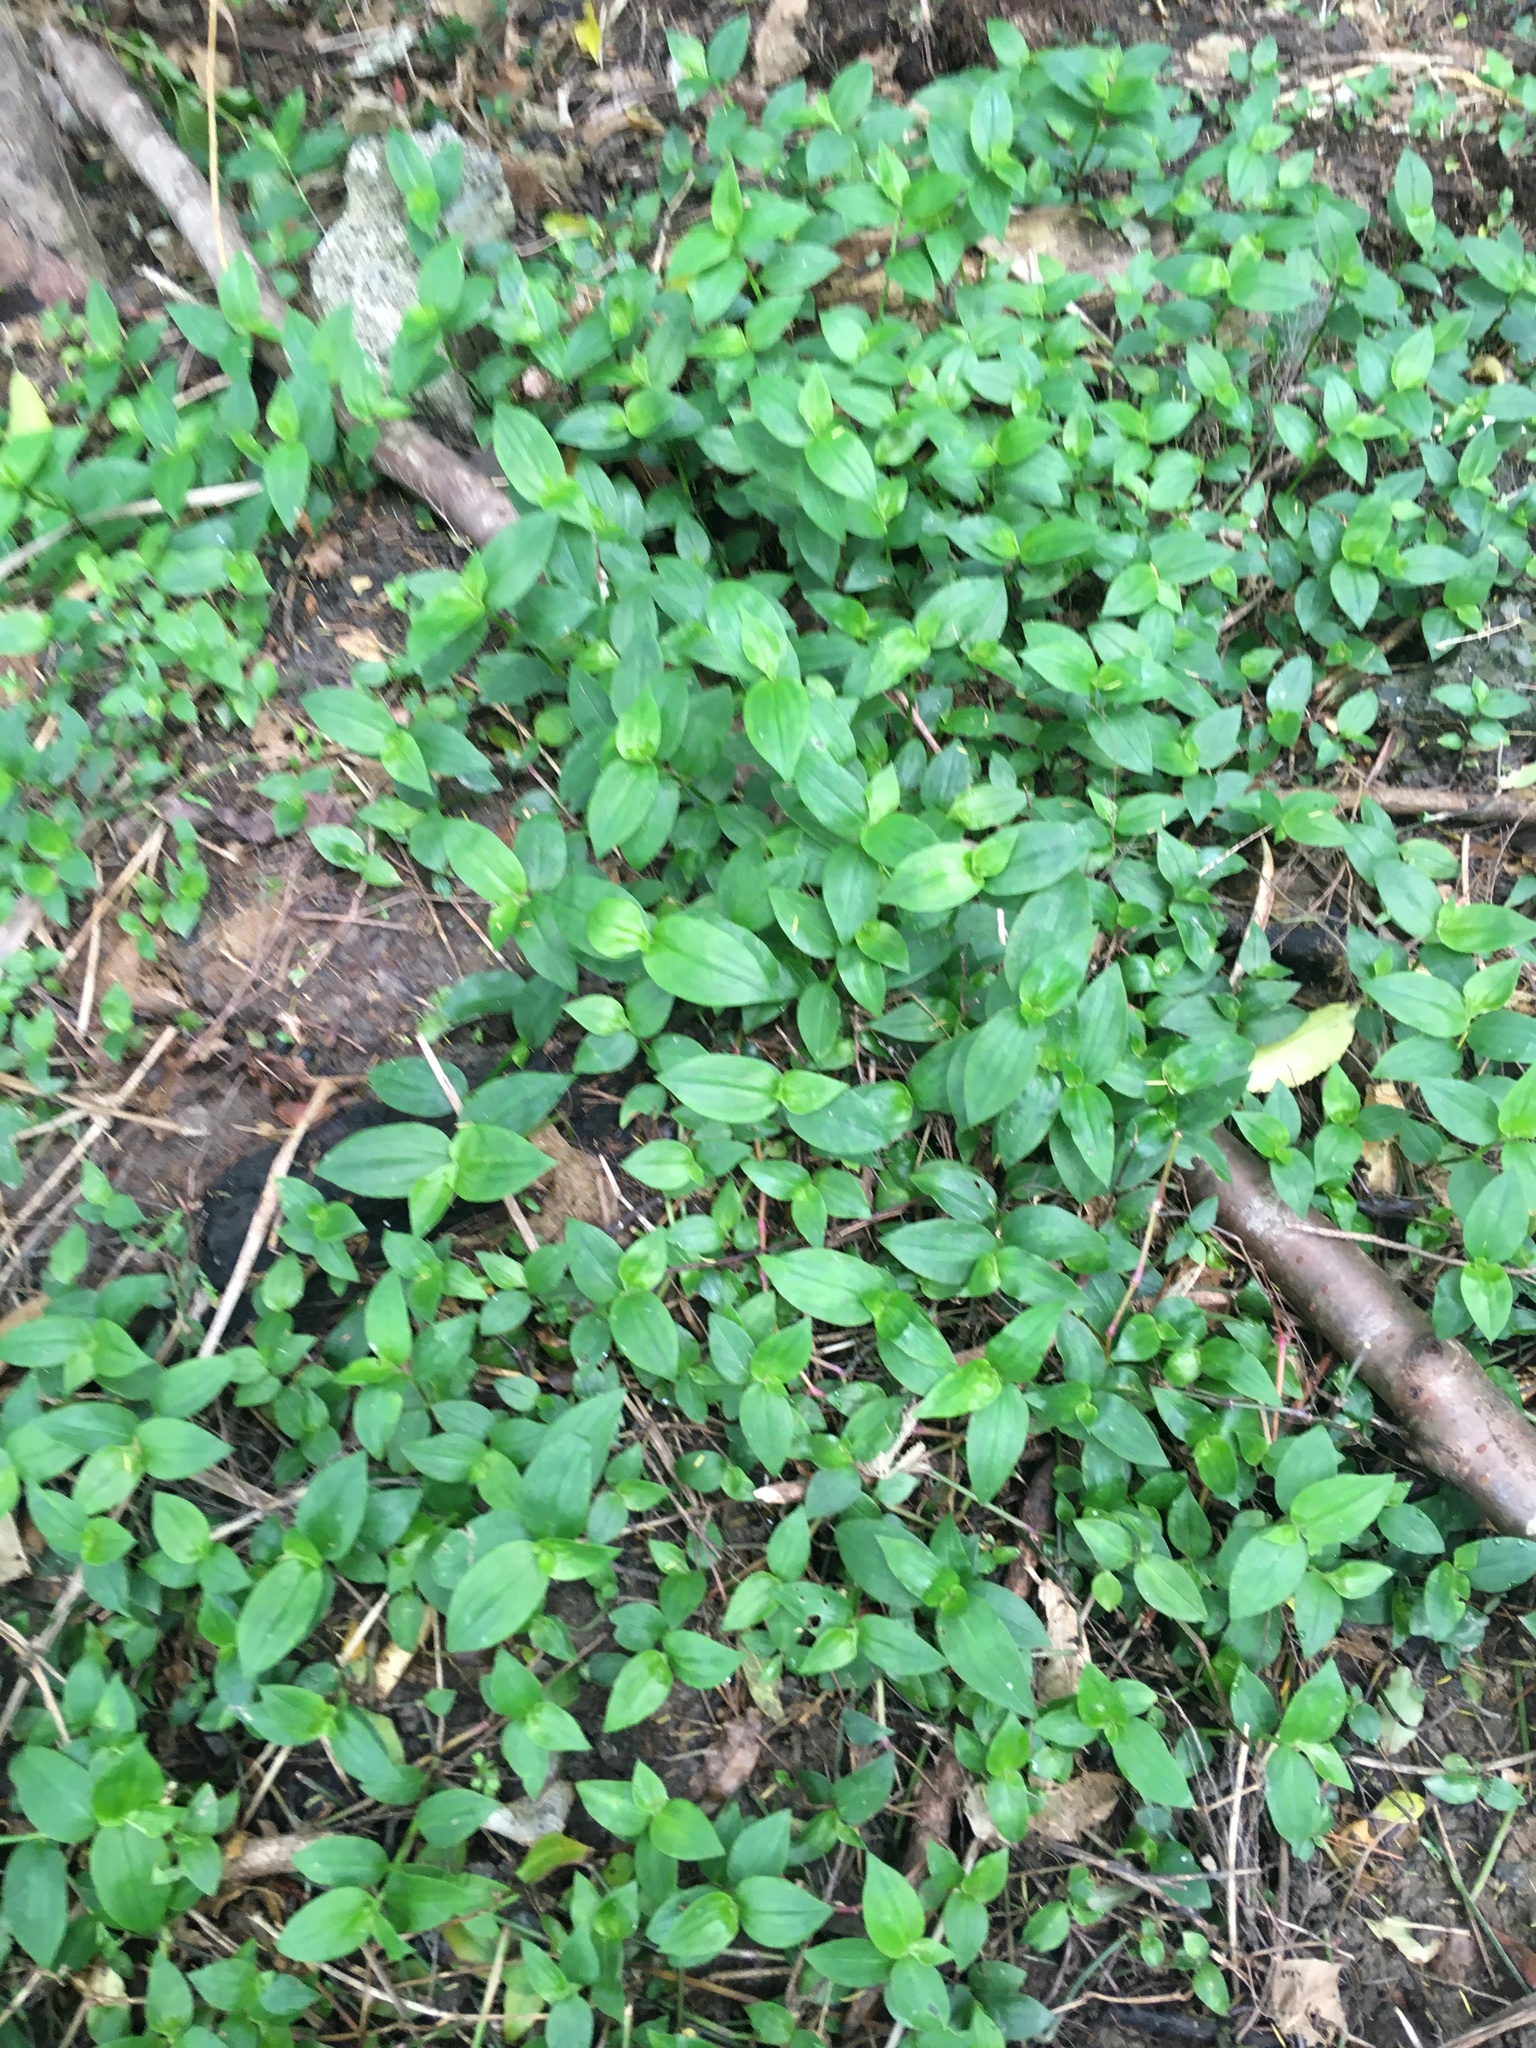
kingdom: Plantae
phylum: Tracheophyta
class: Liliopsida
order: Commelinales
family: Commelinaceae
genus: Tradescantia
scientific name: Tradescantia fluminensis
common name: Wandering-jew
